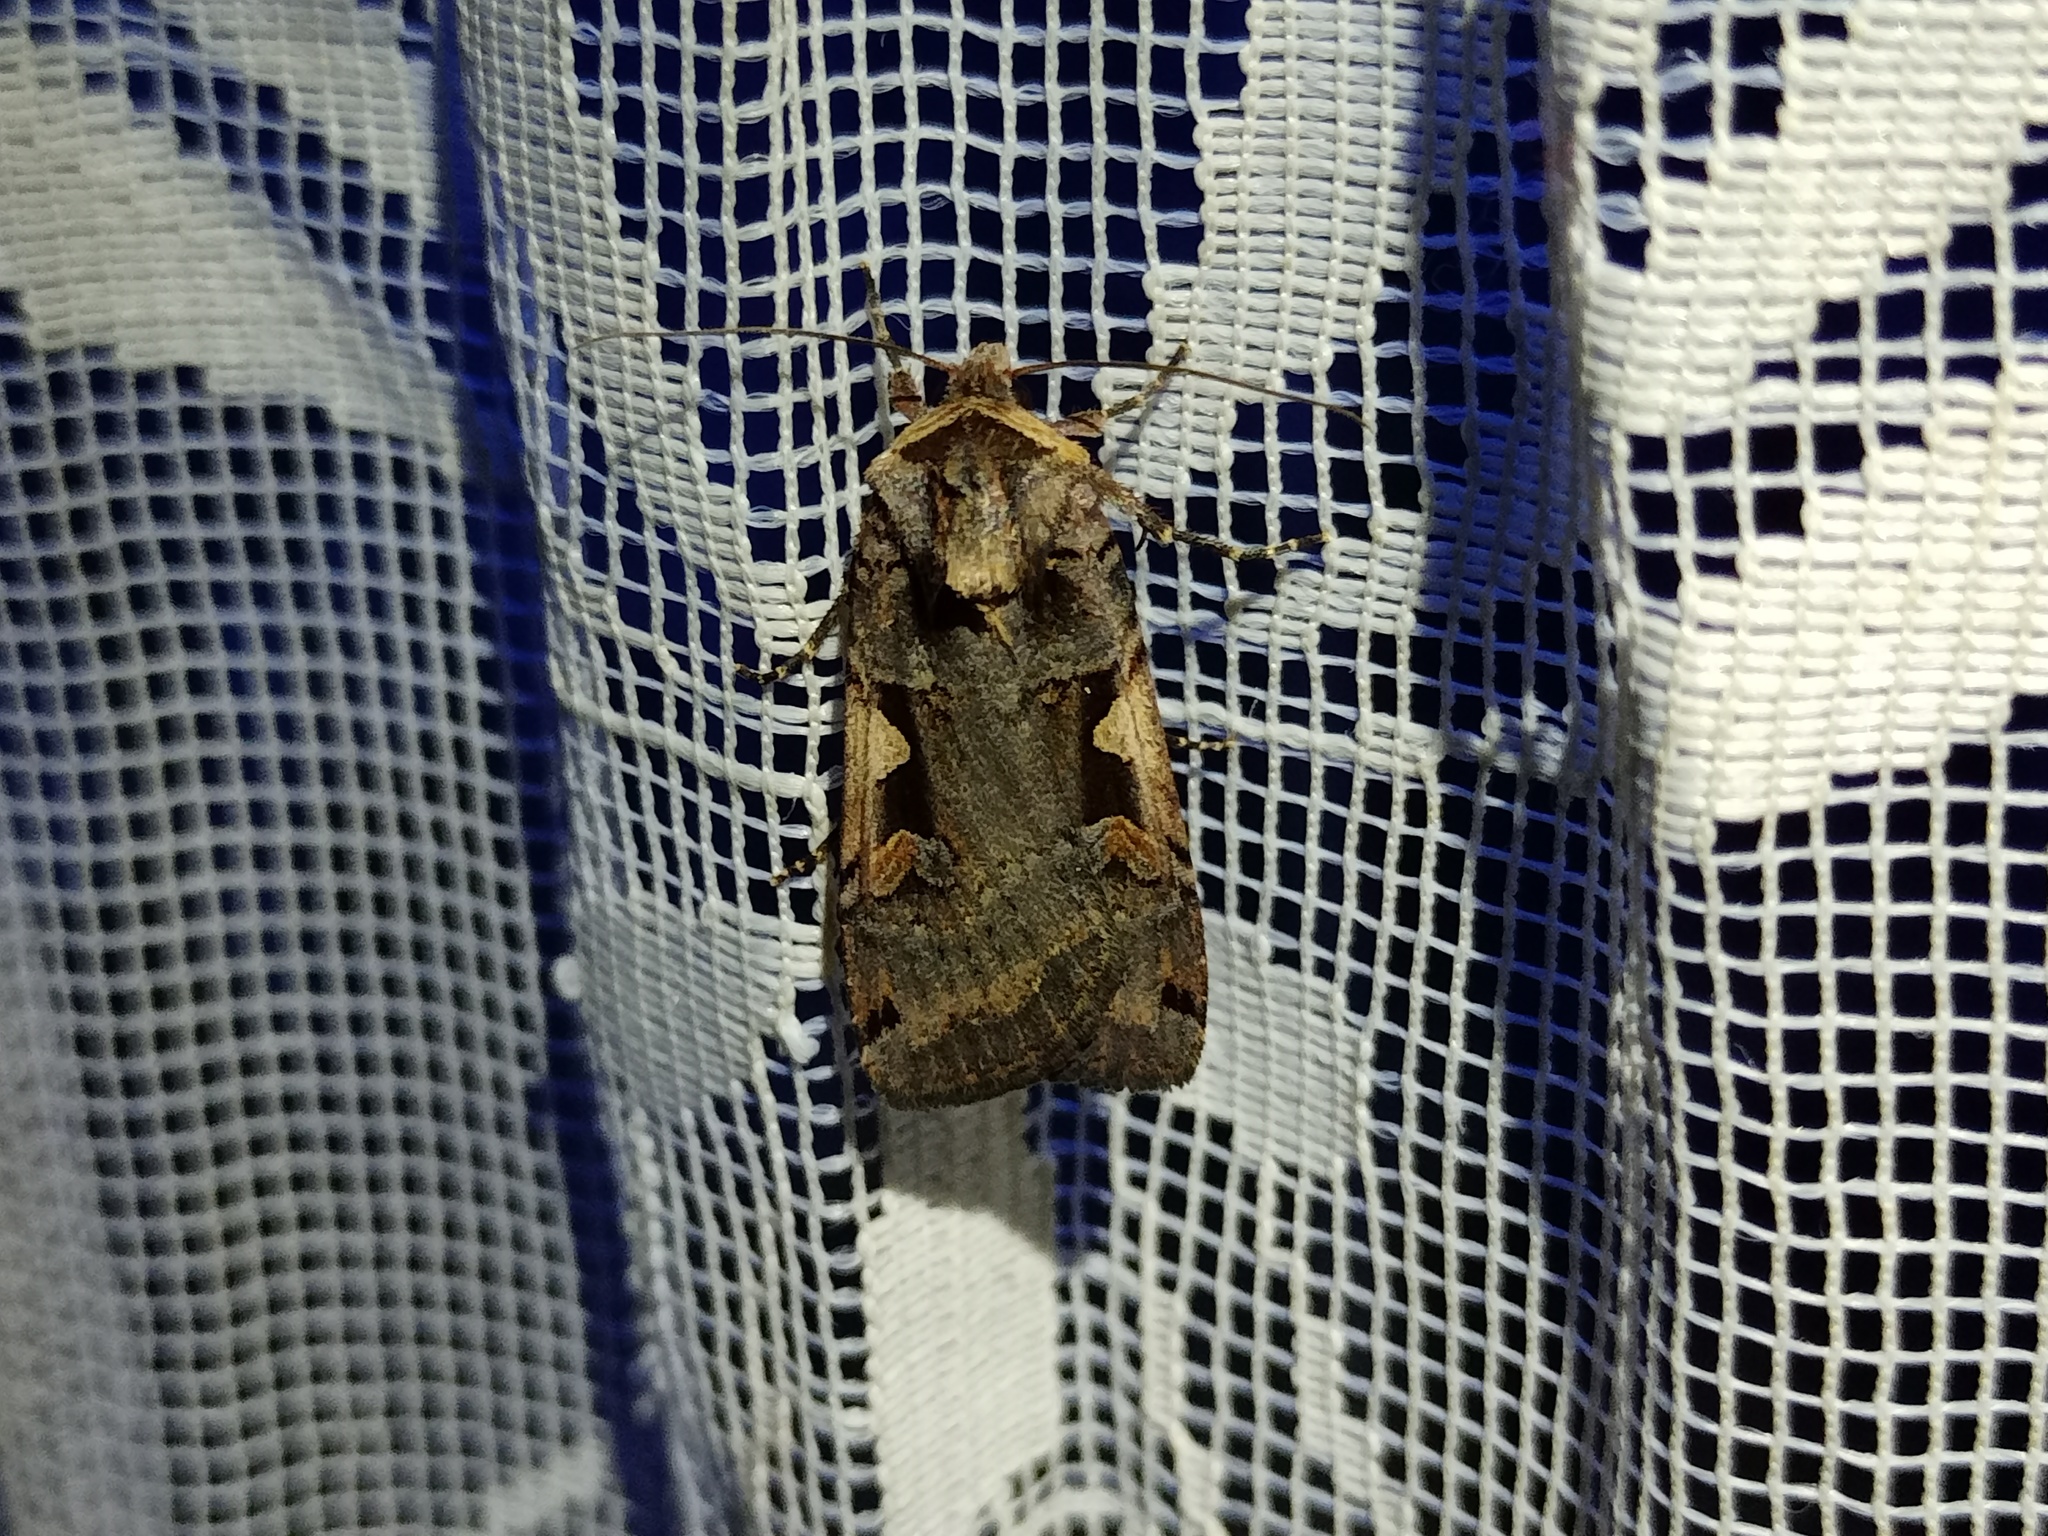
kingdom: Animalia
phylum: Arthropoda
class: Insecta
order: Lepidoptera
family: Noctuidae
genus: Xestia
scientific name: Xestia c-nigrum
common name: Setaceous hebrew character
